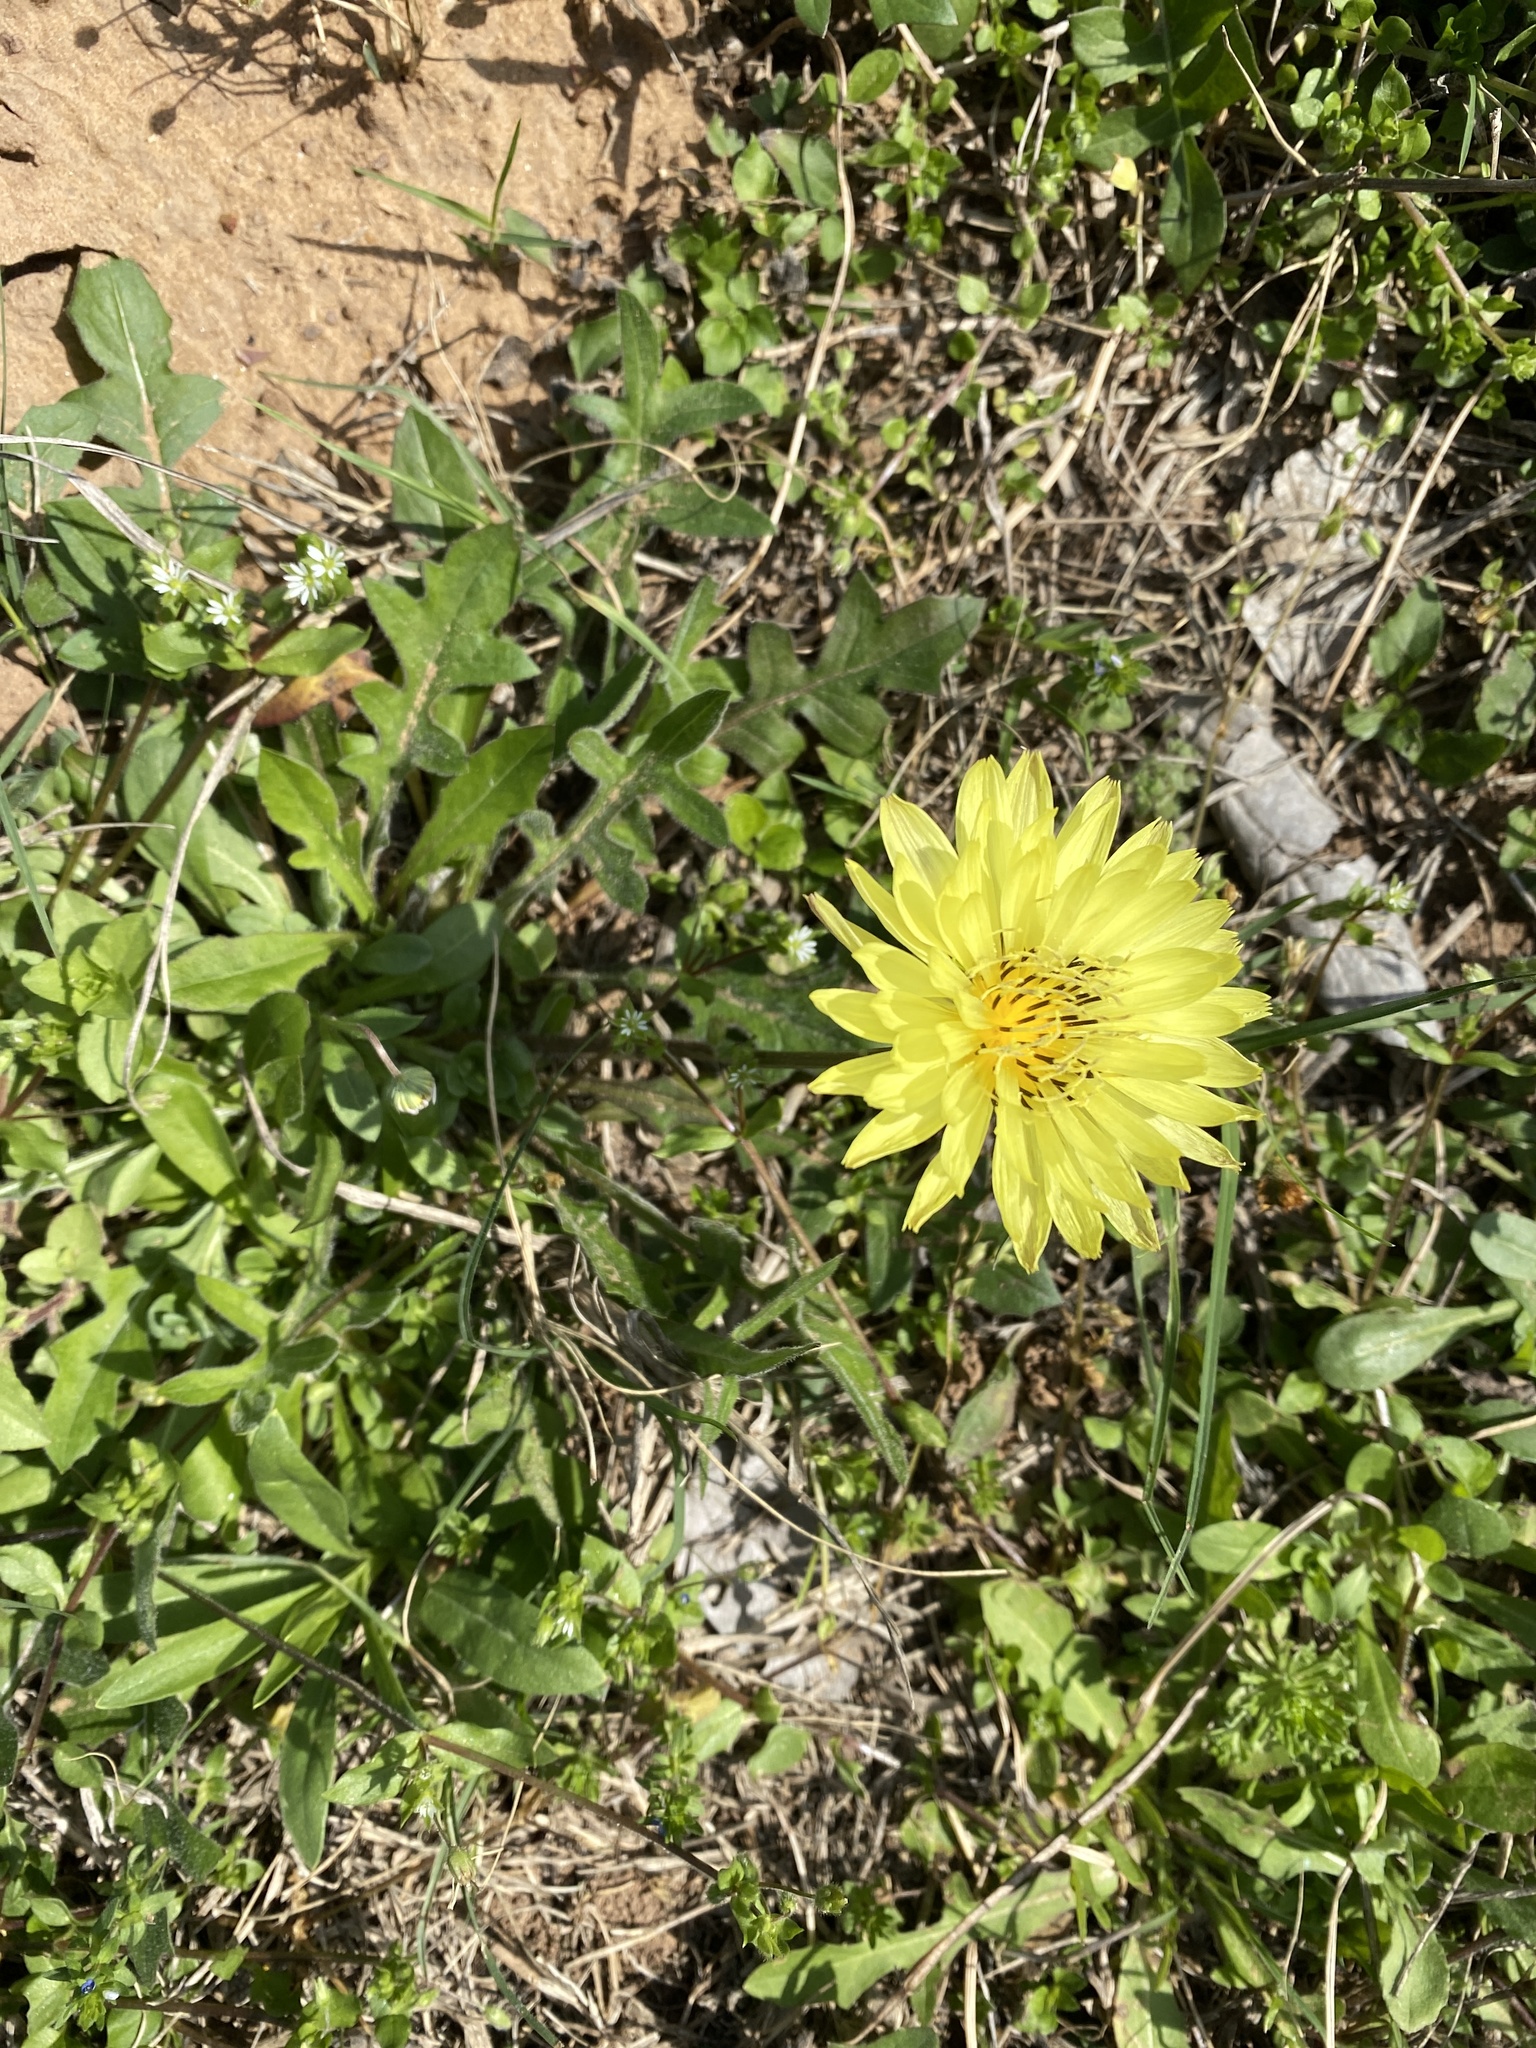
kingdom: Plantae
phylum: Tracheophyta
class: Magnoliopsida
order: Asterales
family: Asteraceae
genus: Pyrrhopappus
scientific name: Pyrrhopappus pauciflorus
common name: Texas false dandelion
